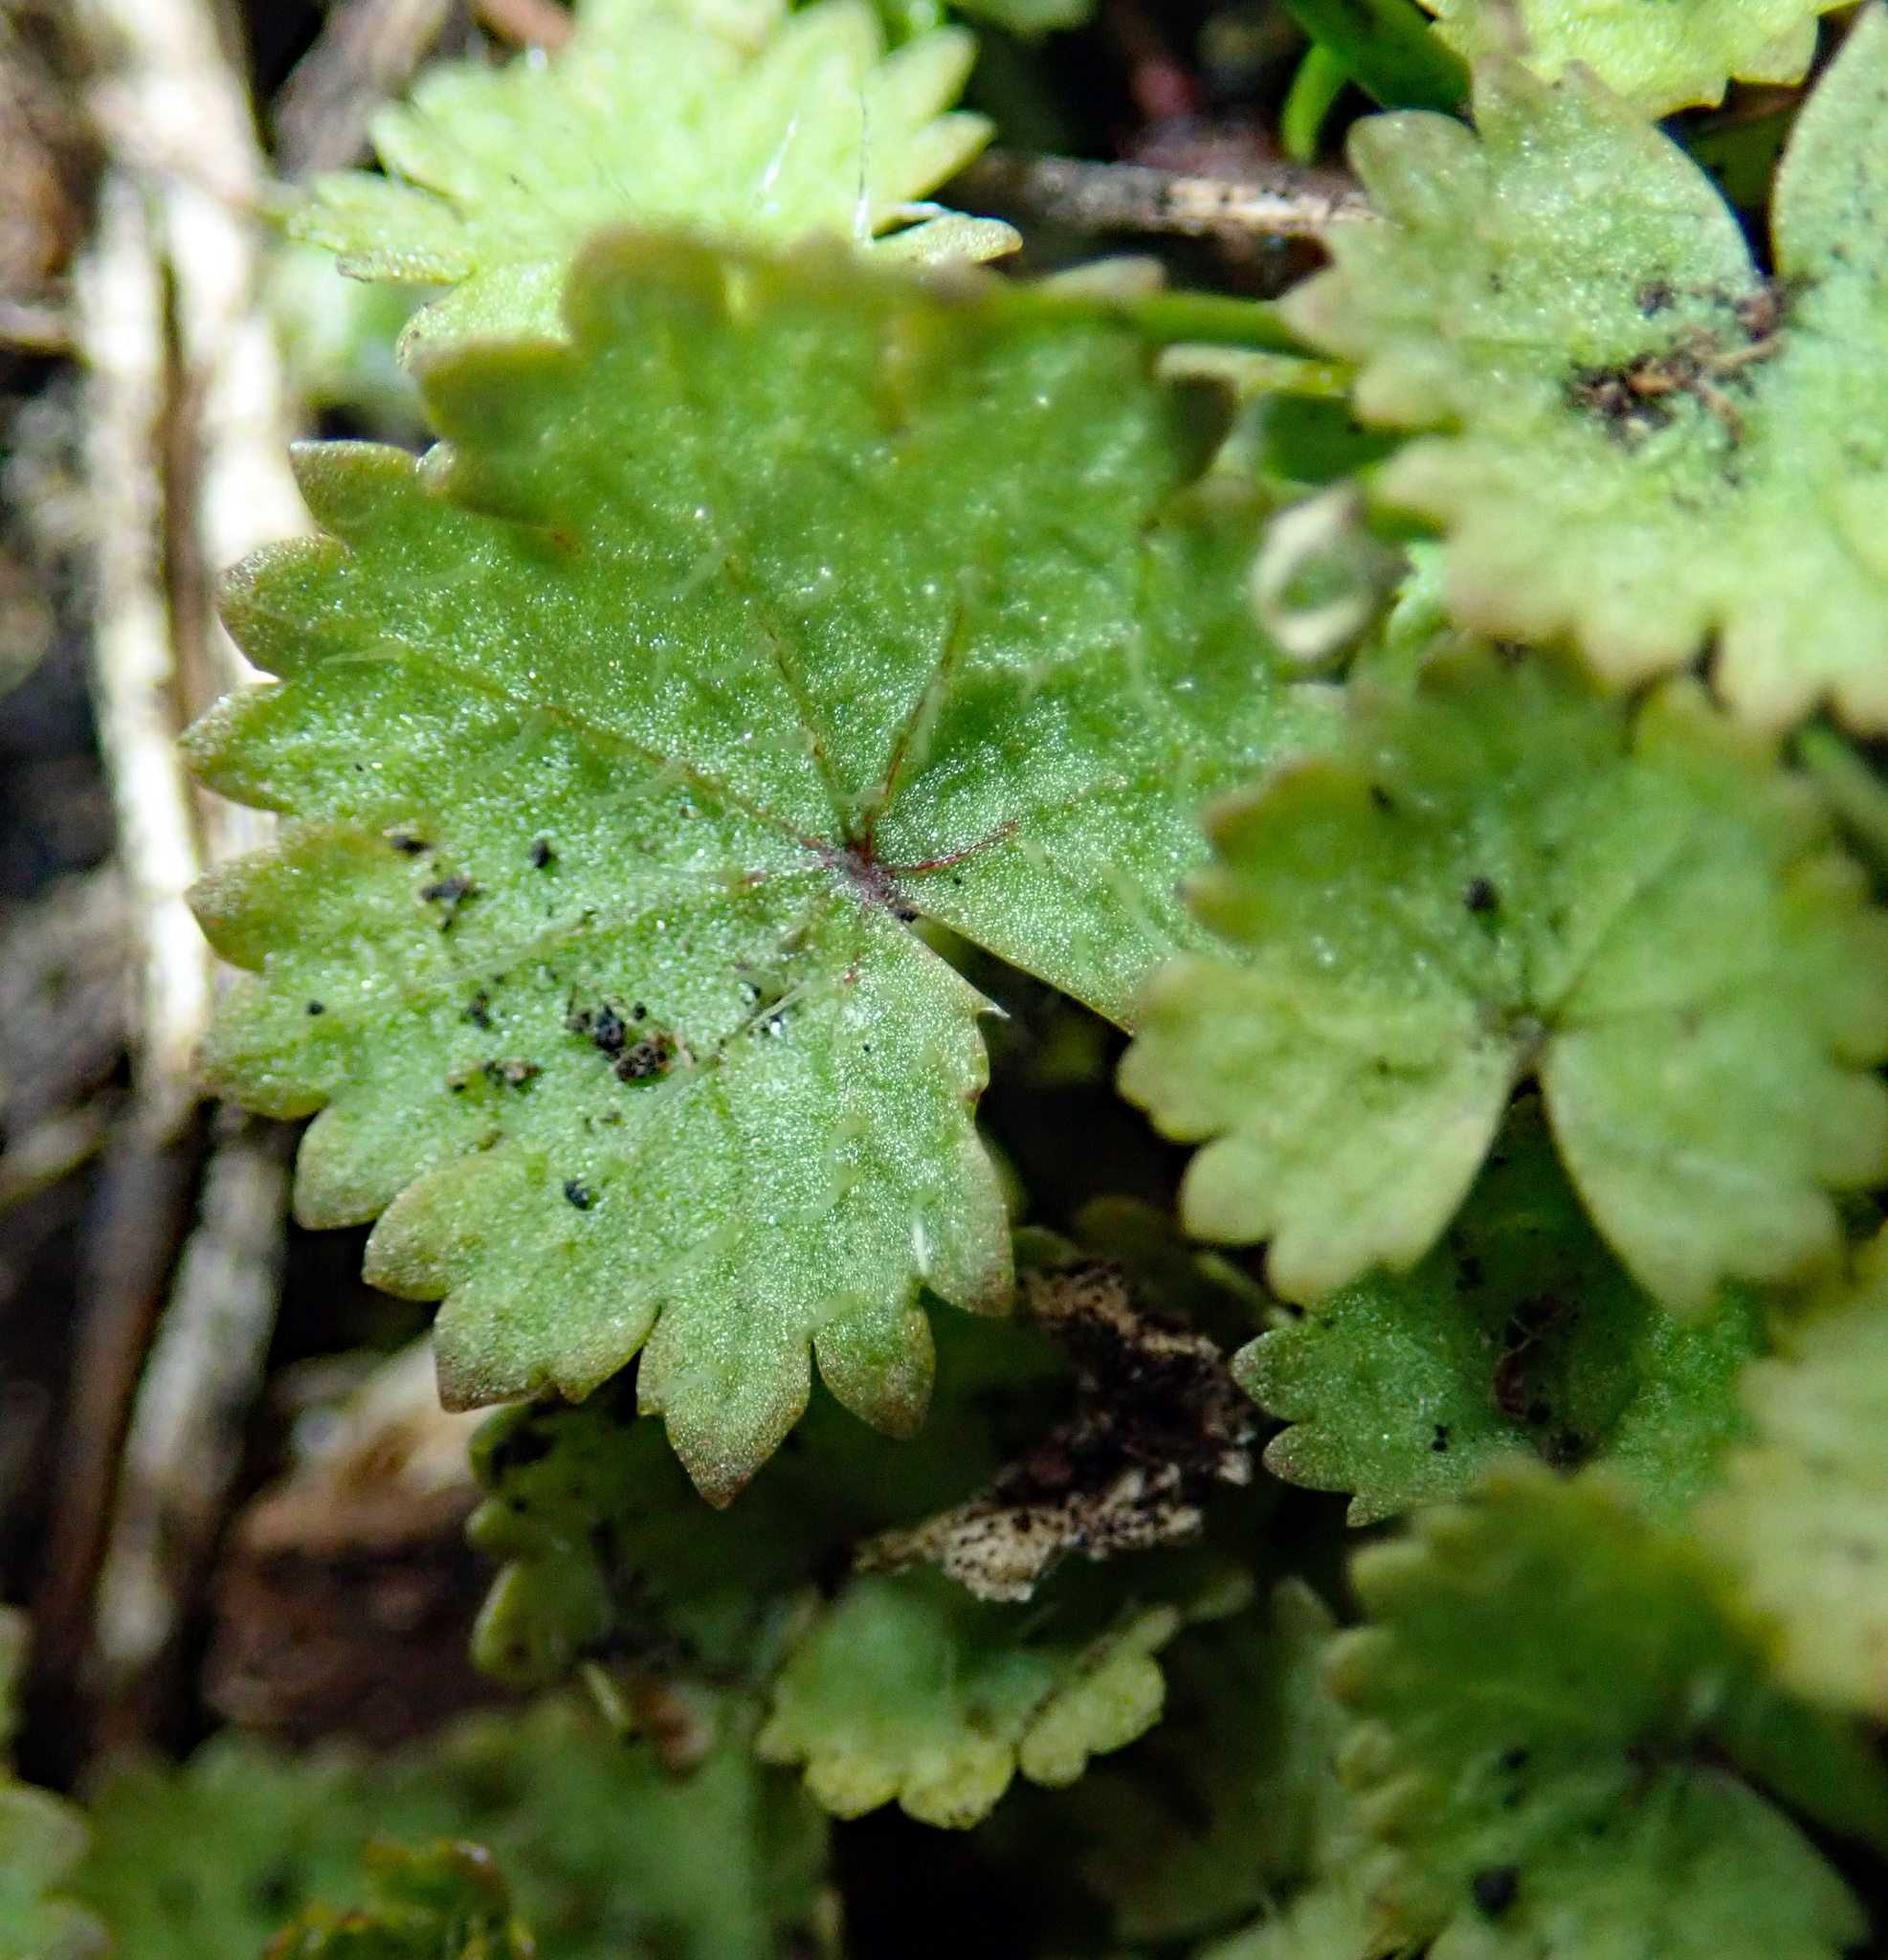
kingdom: Plantae
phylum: Tracheophyta
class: Magnoliopsida
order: Apiales
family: Araliaceae
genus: Hydrocotyle
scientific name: Hydrocotyle moschata
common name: Hairy pennywort
